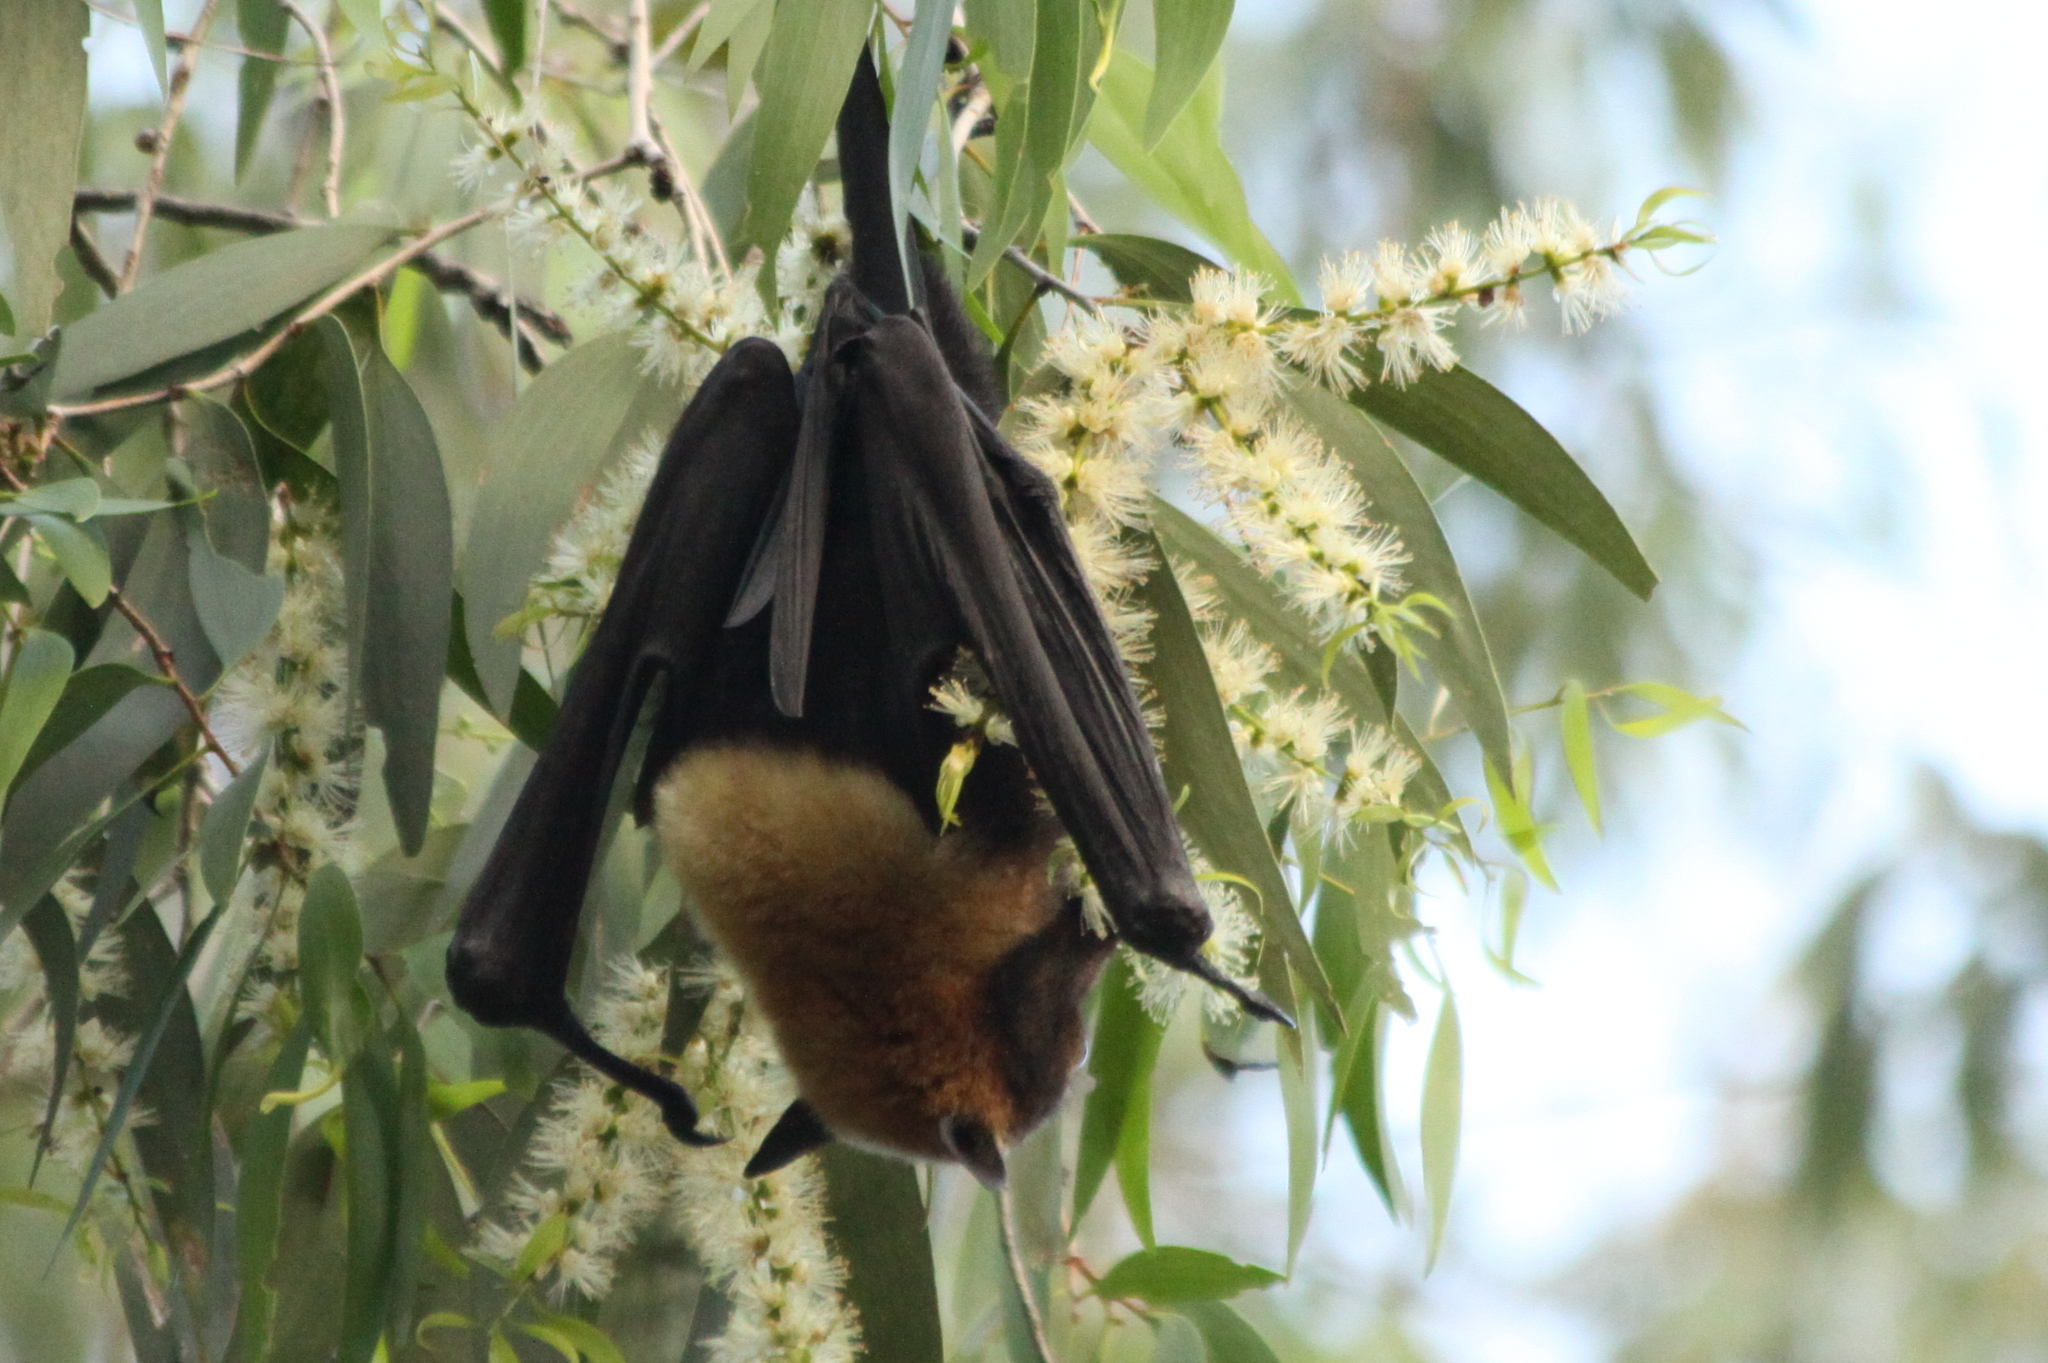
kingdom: Animalia
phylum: Chordata
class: Mammalia
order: Chiroptera
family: Pteropodidae
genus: Pteropus
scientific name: Pteropus conspicillatus
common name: Spectacled flying fox
